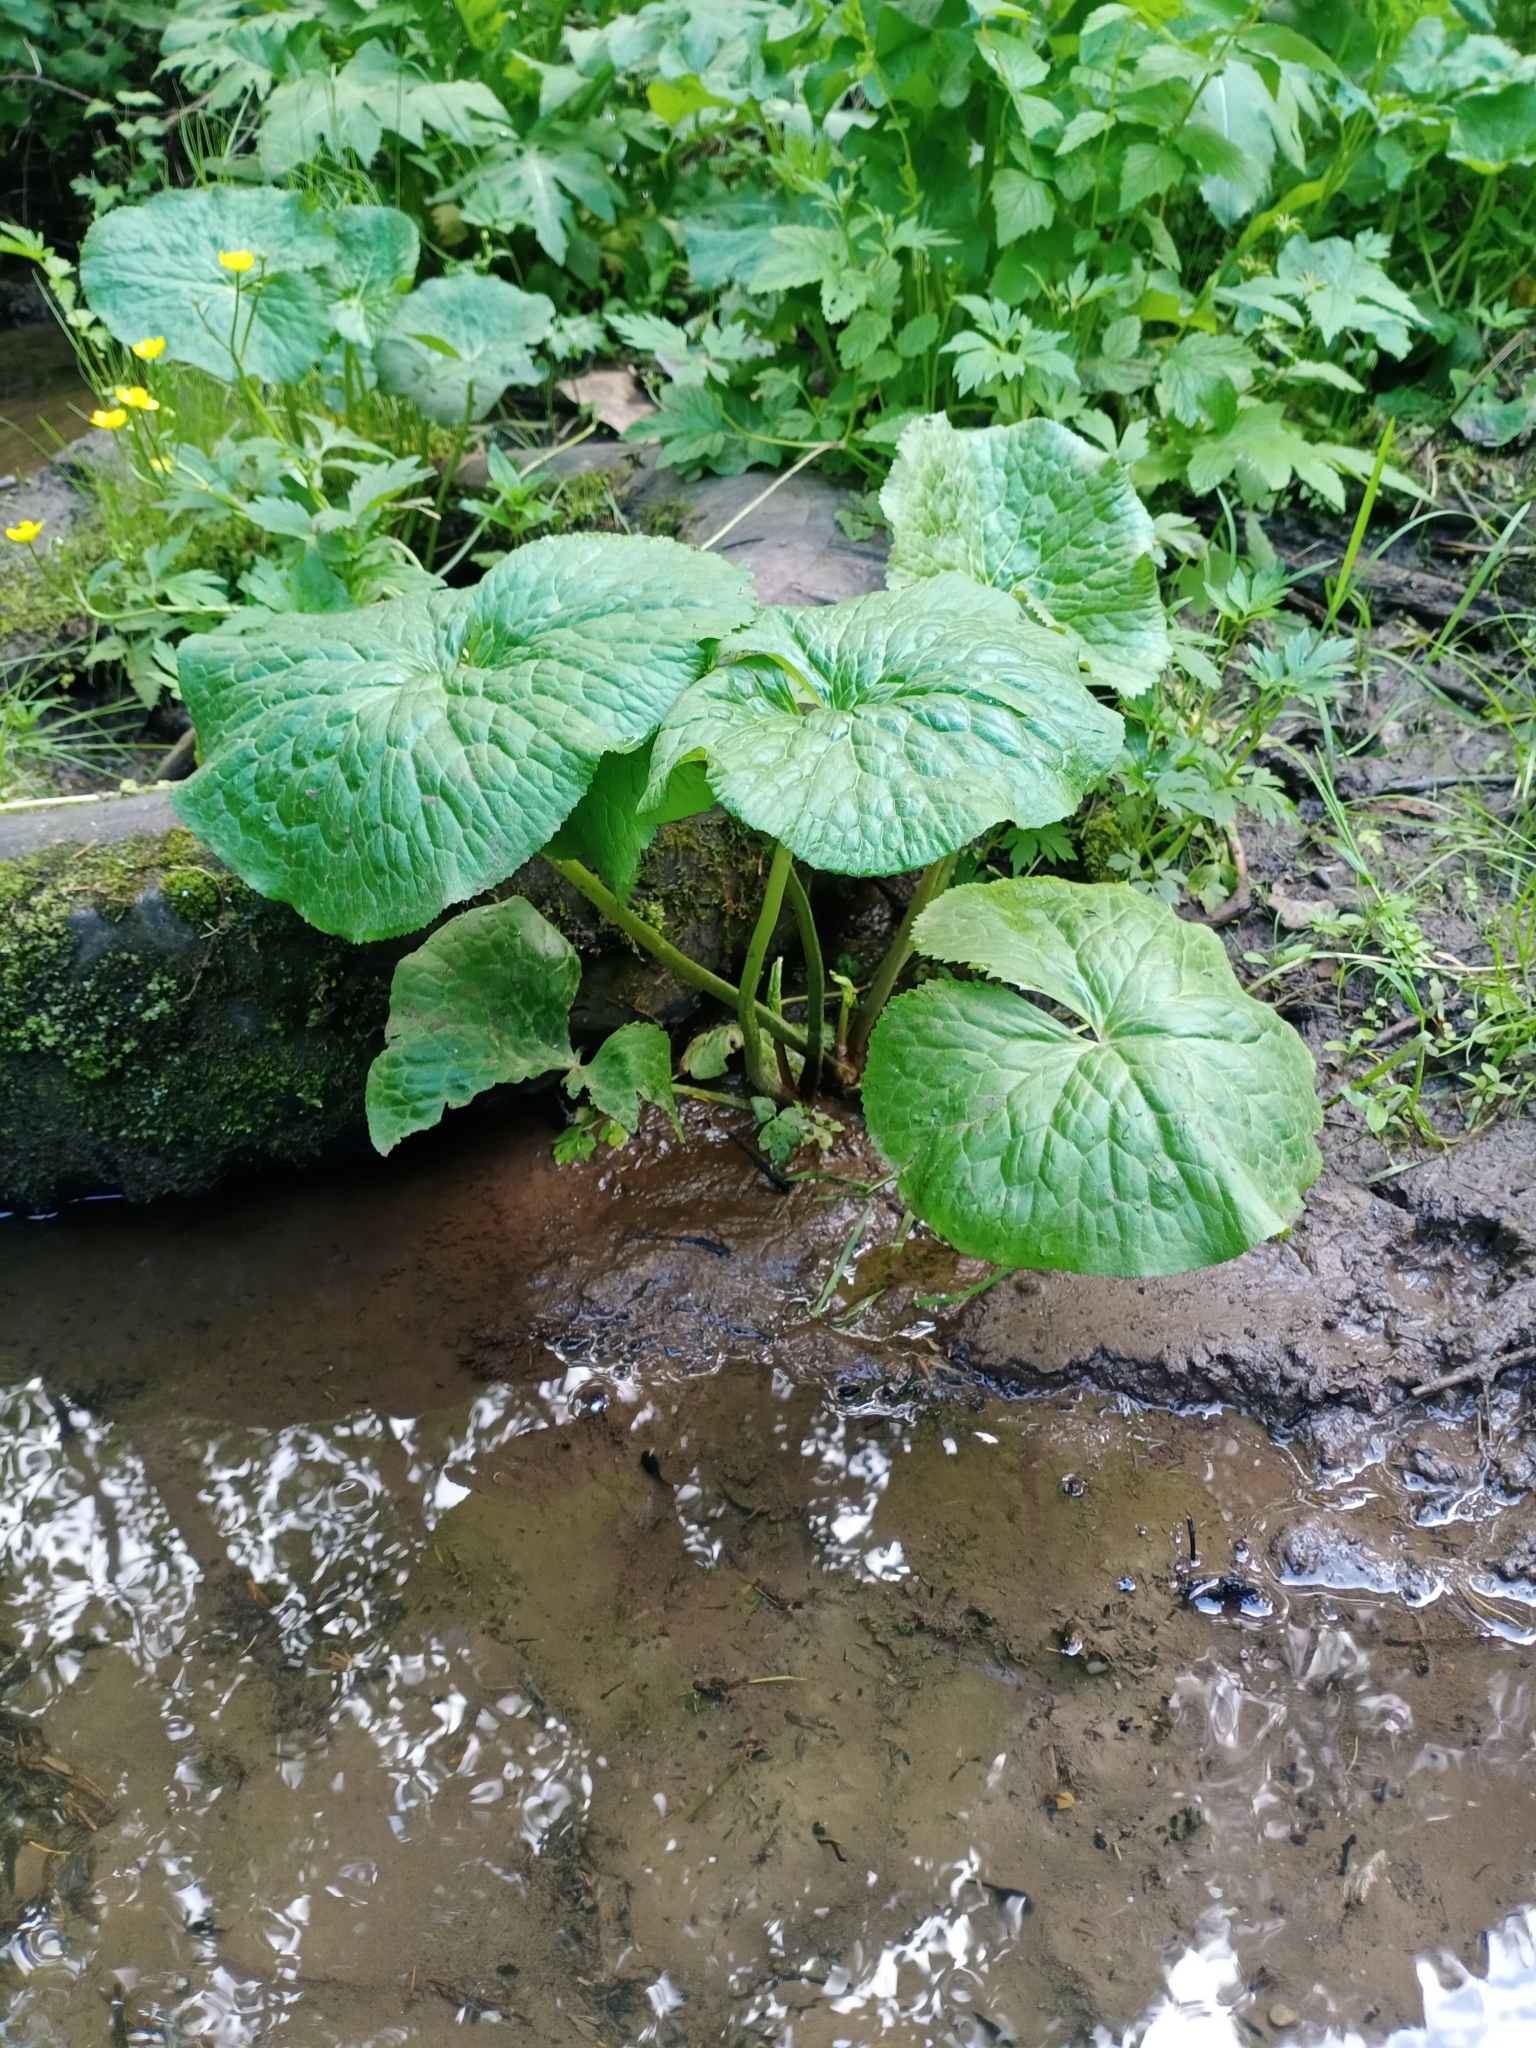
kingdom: Plantae
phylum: Tracheophyta
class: Magnoliopsida
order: Ranunculales
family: Ranunculaceae
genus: Caltha
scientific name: Caltha palustris
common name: Marsh marigold
